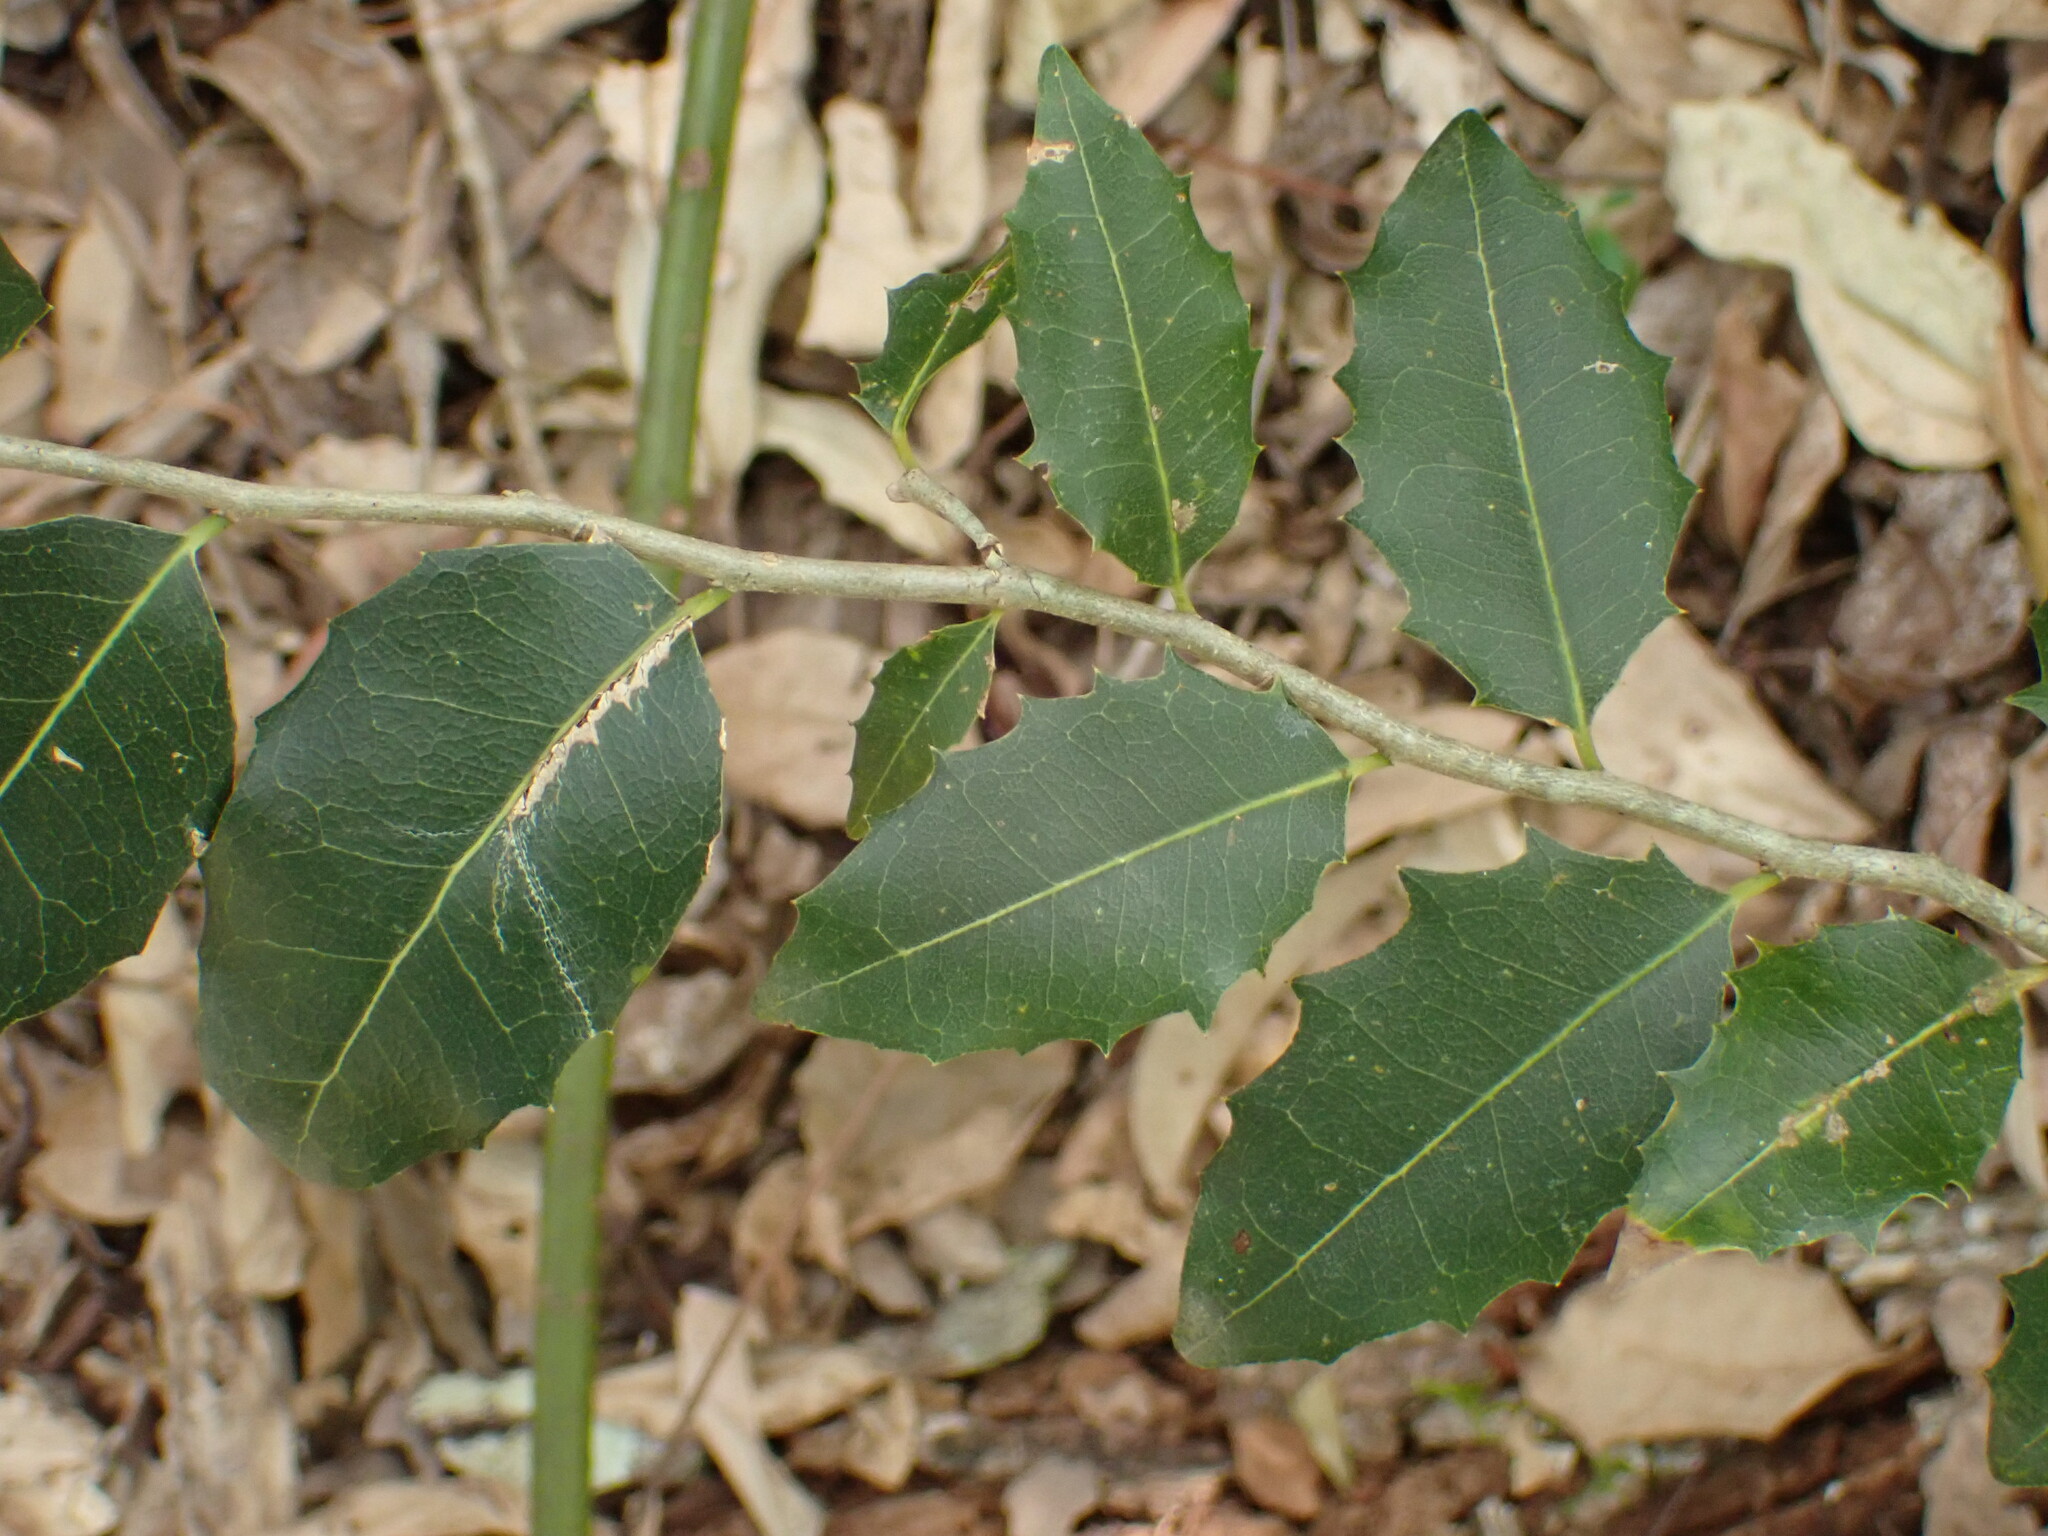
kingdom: Plantae
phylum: Tracheophyta
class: Magnoliopsida
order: Malpighiales
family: Putranjivaceae
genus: Drypetes
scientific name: Drypetes deplanchei
